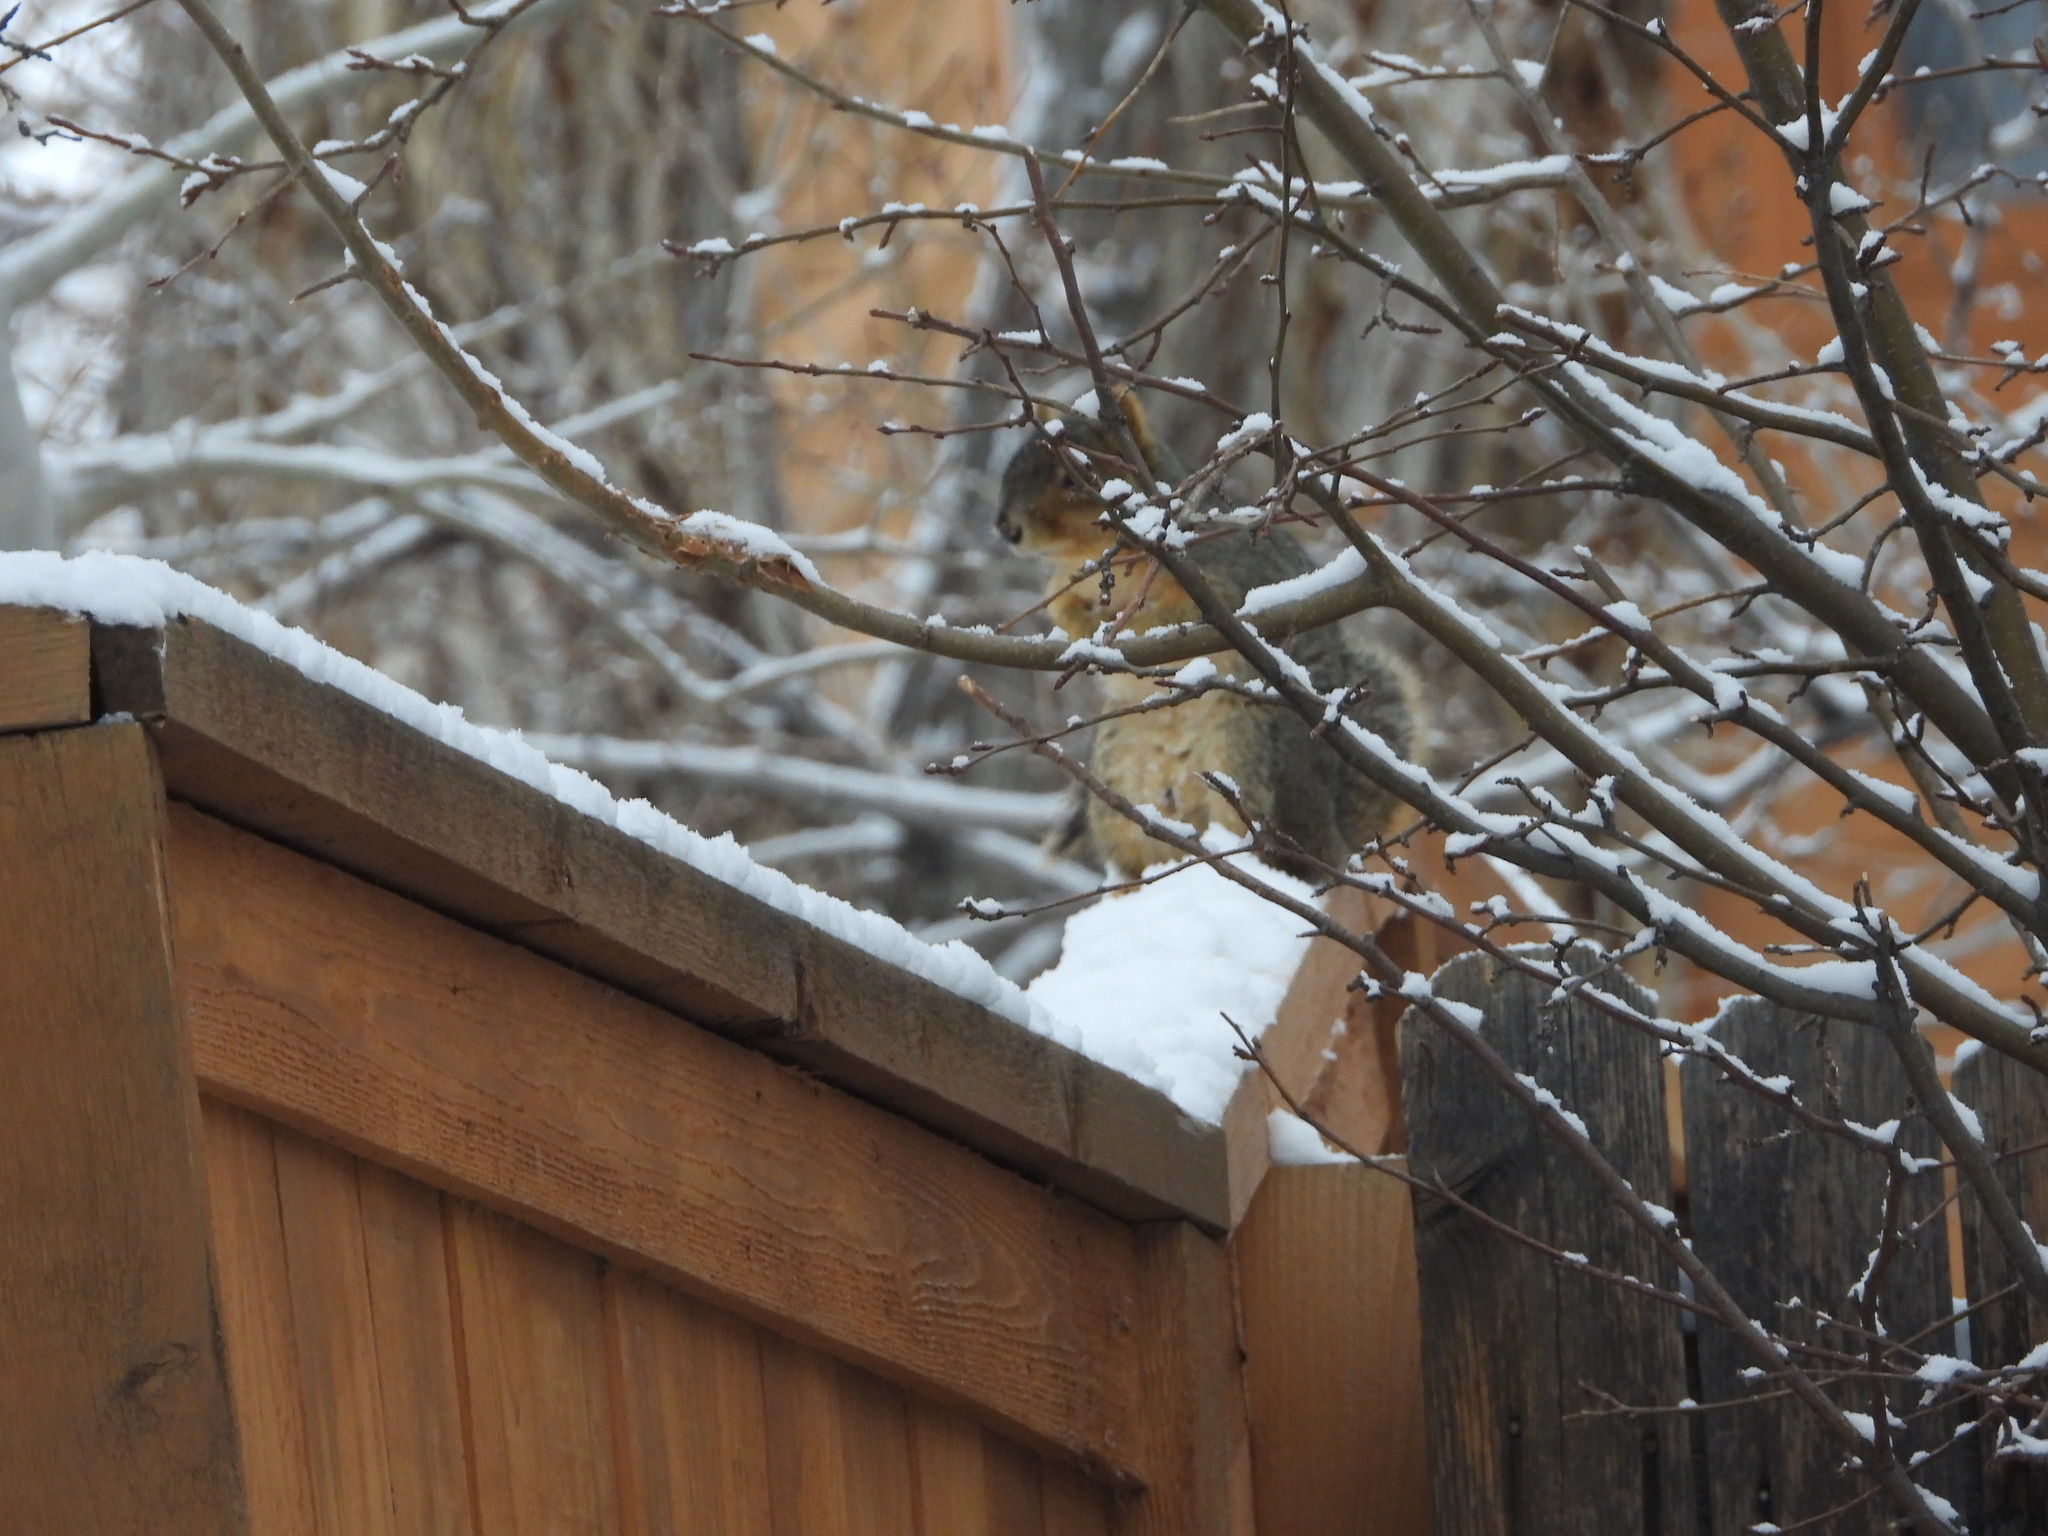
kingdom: Animalia
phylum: Chordata
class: Mammalia
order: Rodentia
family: Sciuridae
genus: Sciurus
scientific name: Sciurus niger
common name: Fox squirrel
